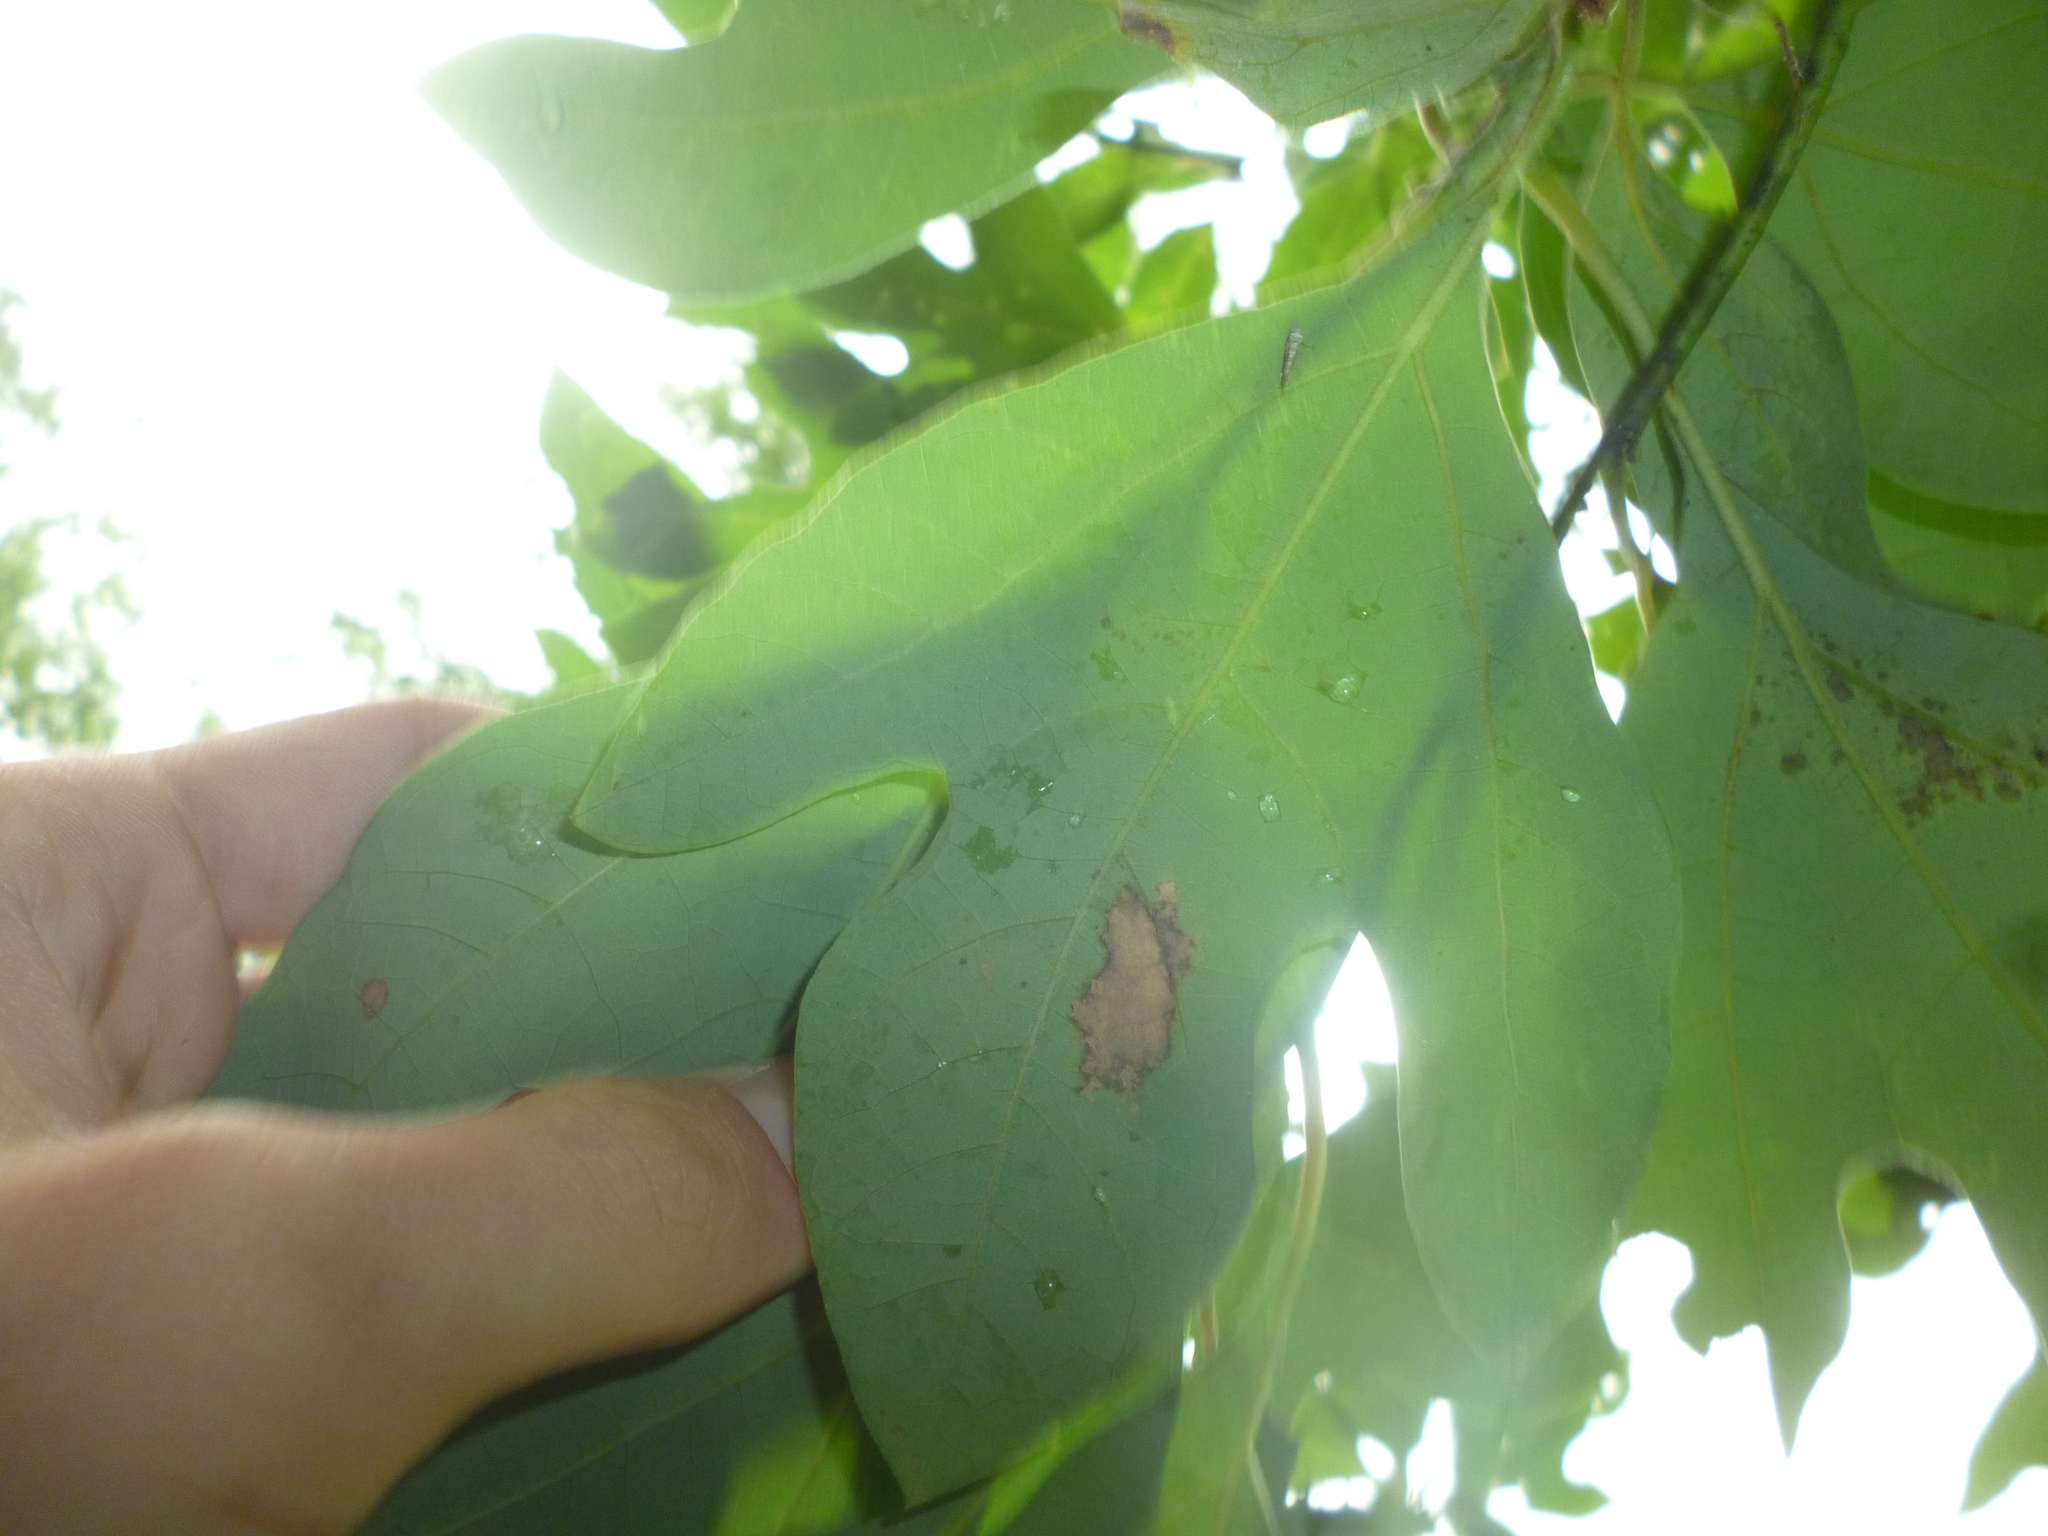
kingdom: Plantae
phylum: Tracheophyta
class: Magnoliopsida
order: Laurales
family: Lauraceae
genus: Sassafras
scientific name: Sassafras albidum
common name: Sassafras
